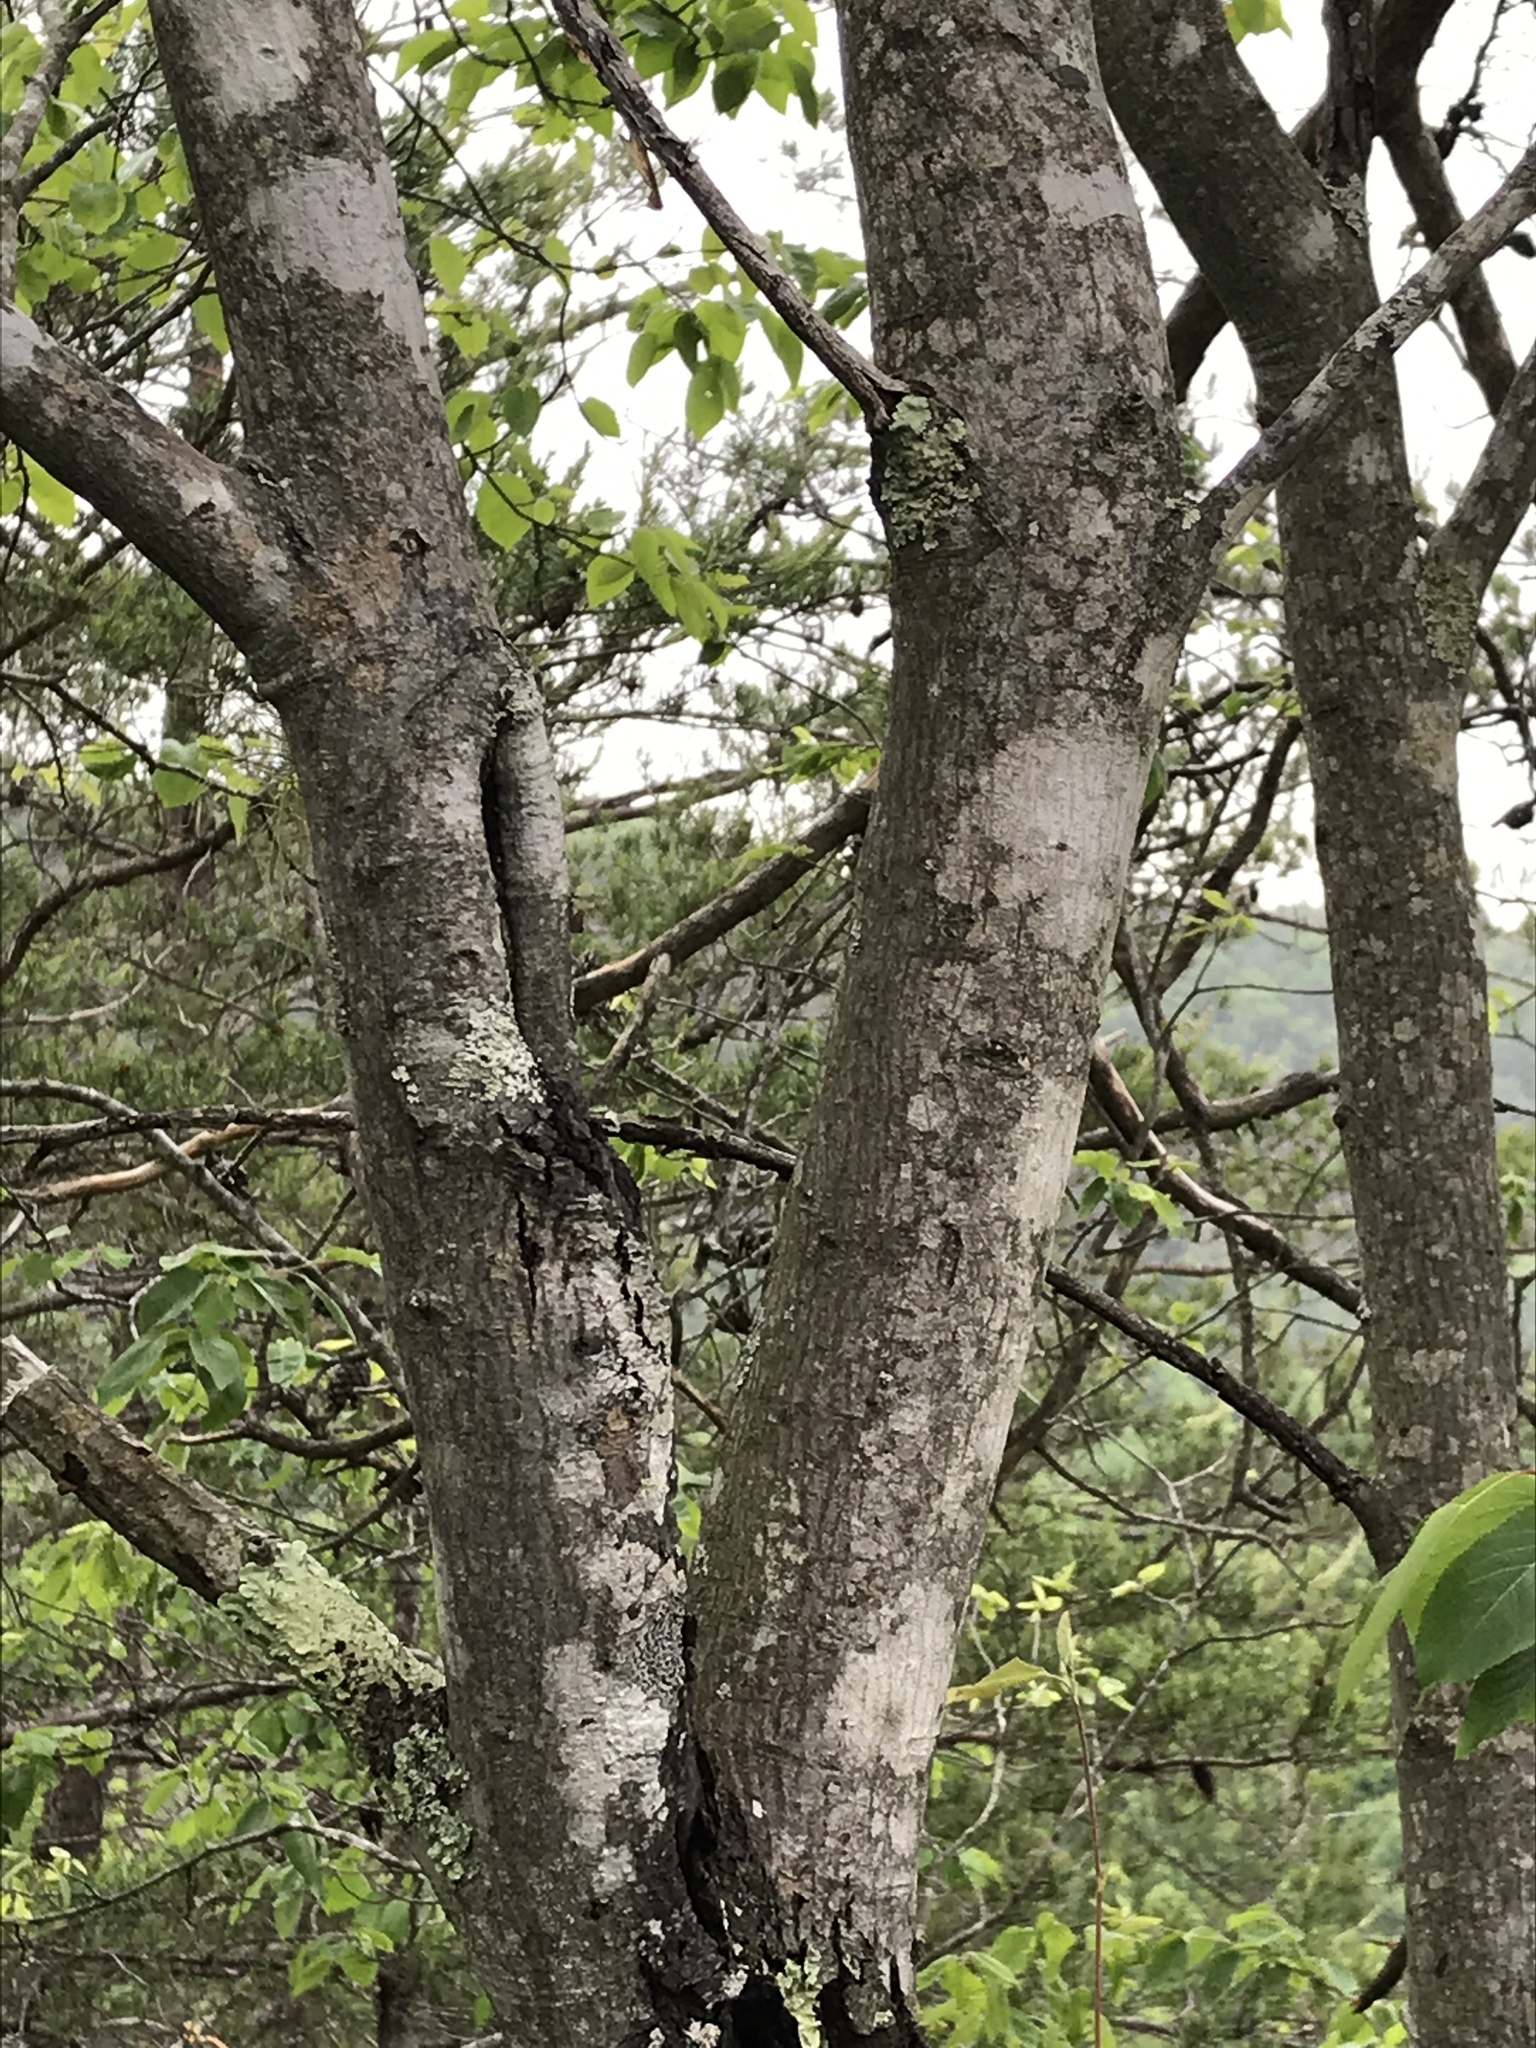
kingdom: Plantae
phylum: Tracheophyta
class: Magnoliopsida
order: Rosales
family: Rosaceae
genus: Amelanchier
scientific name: Amelanchier arborea
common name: Downy serviceberry
